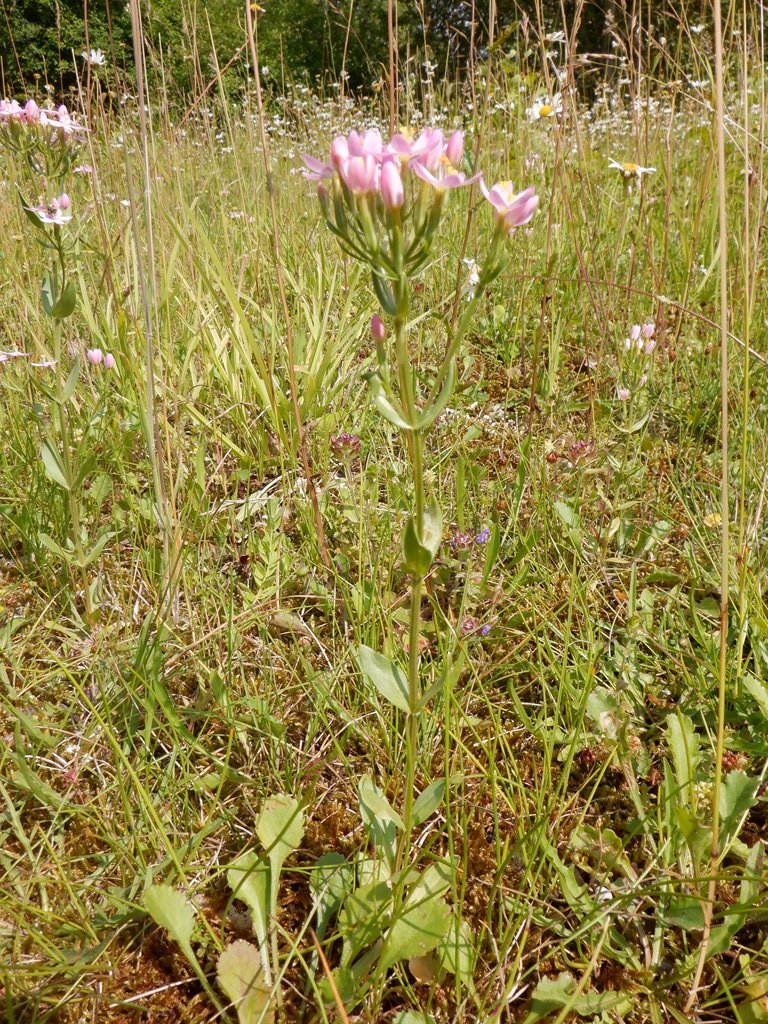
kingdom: Plantae
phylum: Tracheophyta
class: Magnoliopsida
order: Gentianales
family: Gentianaceae
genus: Centaurium
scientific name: Centaurium erythraea
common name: Common centaury
